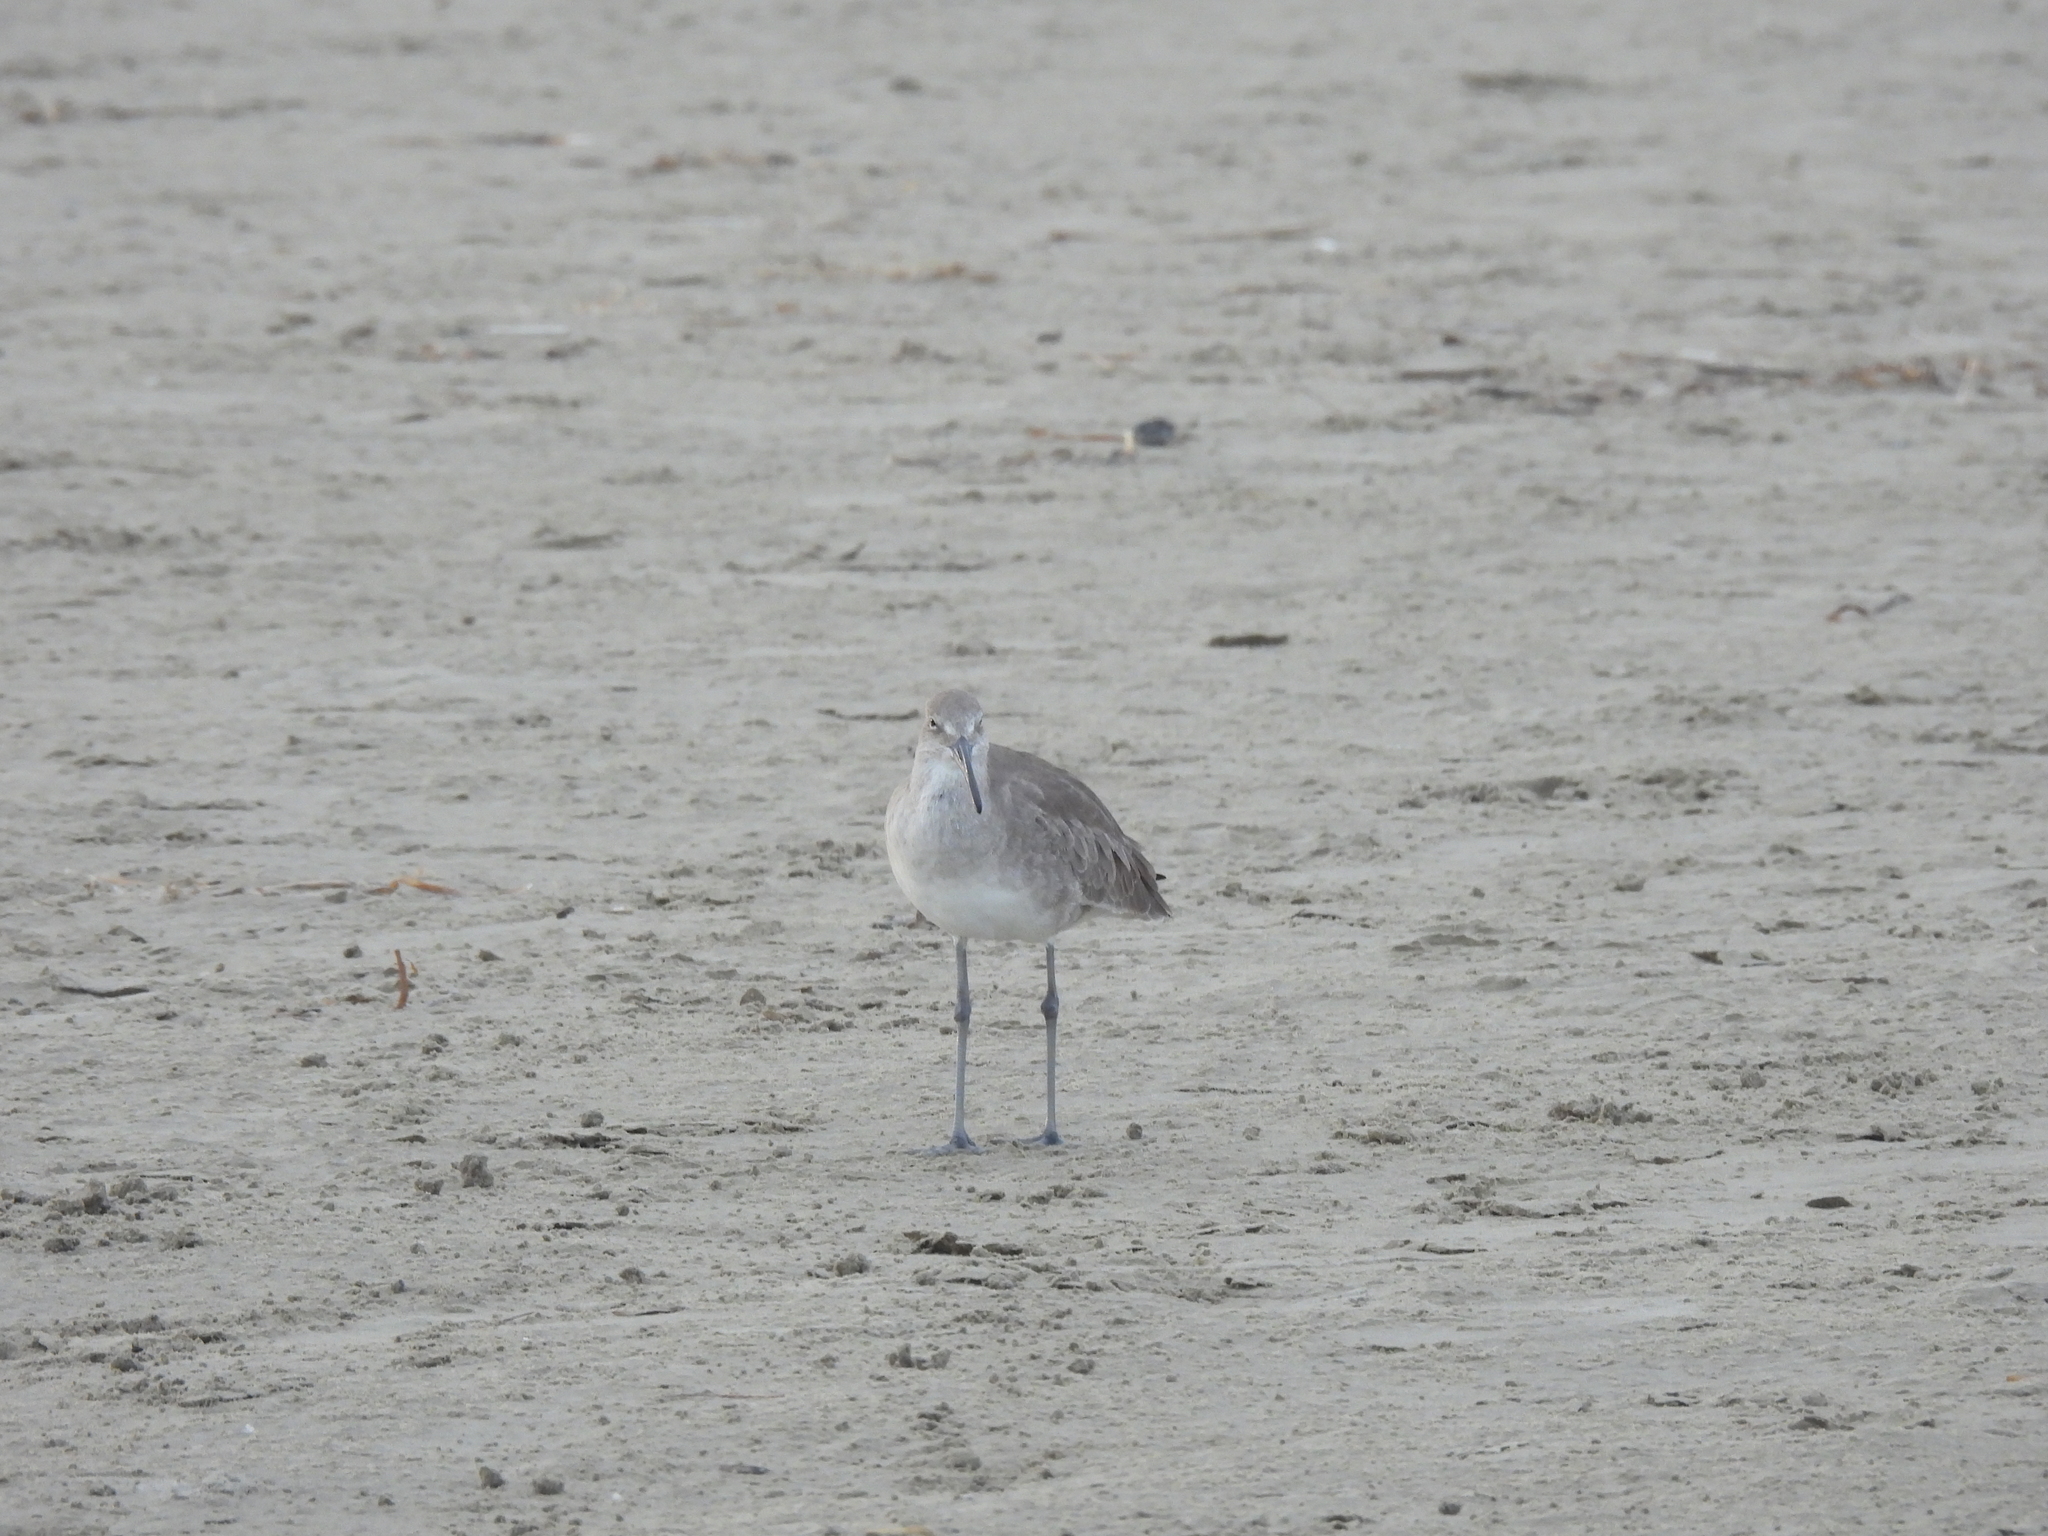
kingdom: Animalia
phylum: Chordata
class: Aves
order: Charadriiformes
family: Scolopacidae
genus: Tringa
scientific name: Tringa semipalmata
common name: Willet
